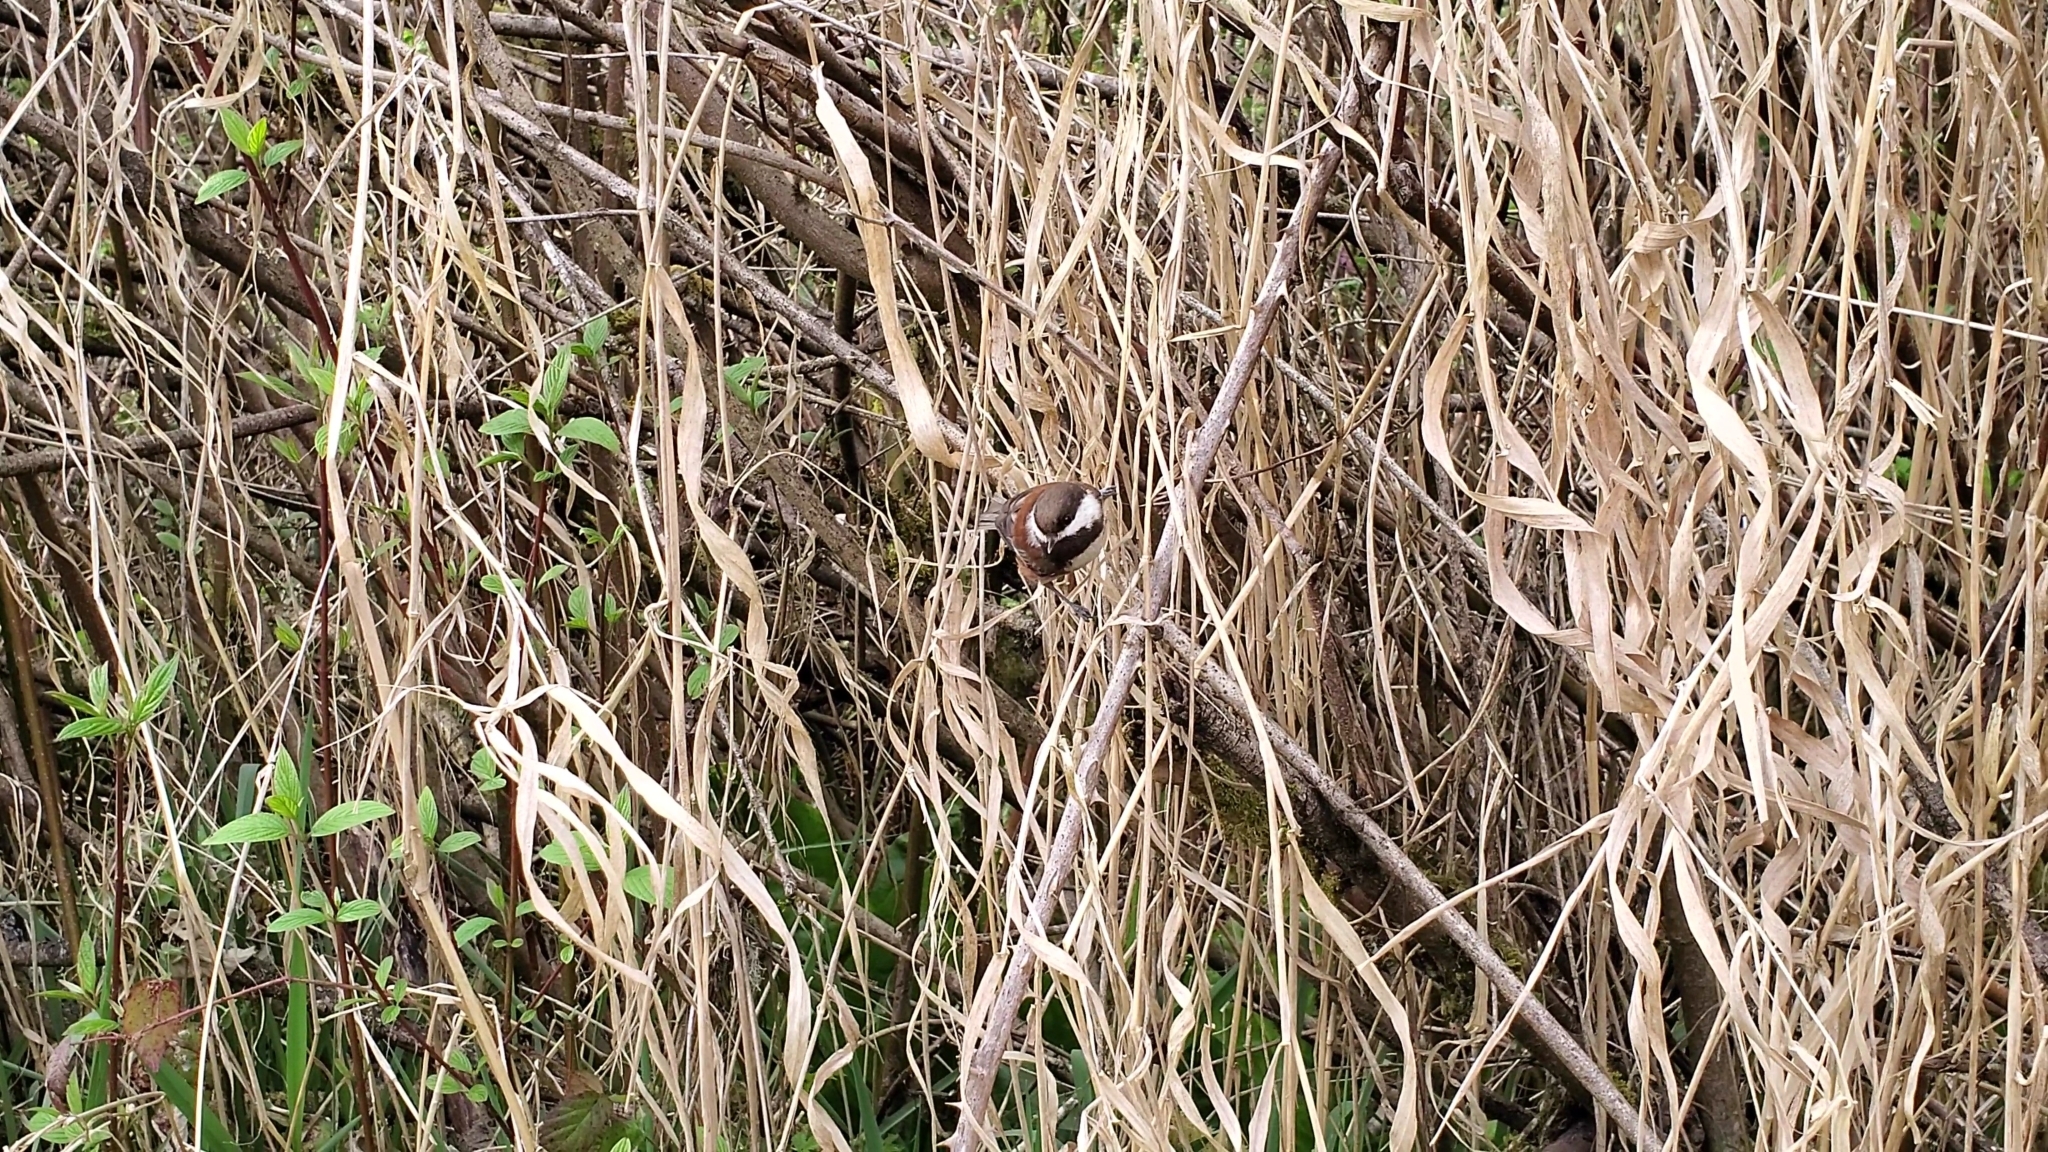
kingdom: Animalia
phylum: Chordata
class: Aves
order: Passeriformes
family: Paridae
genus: Poecile
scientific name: Poecile rufescens
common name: Chestnut-backed chickadee
